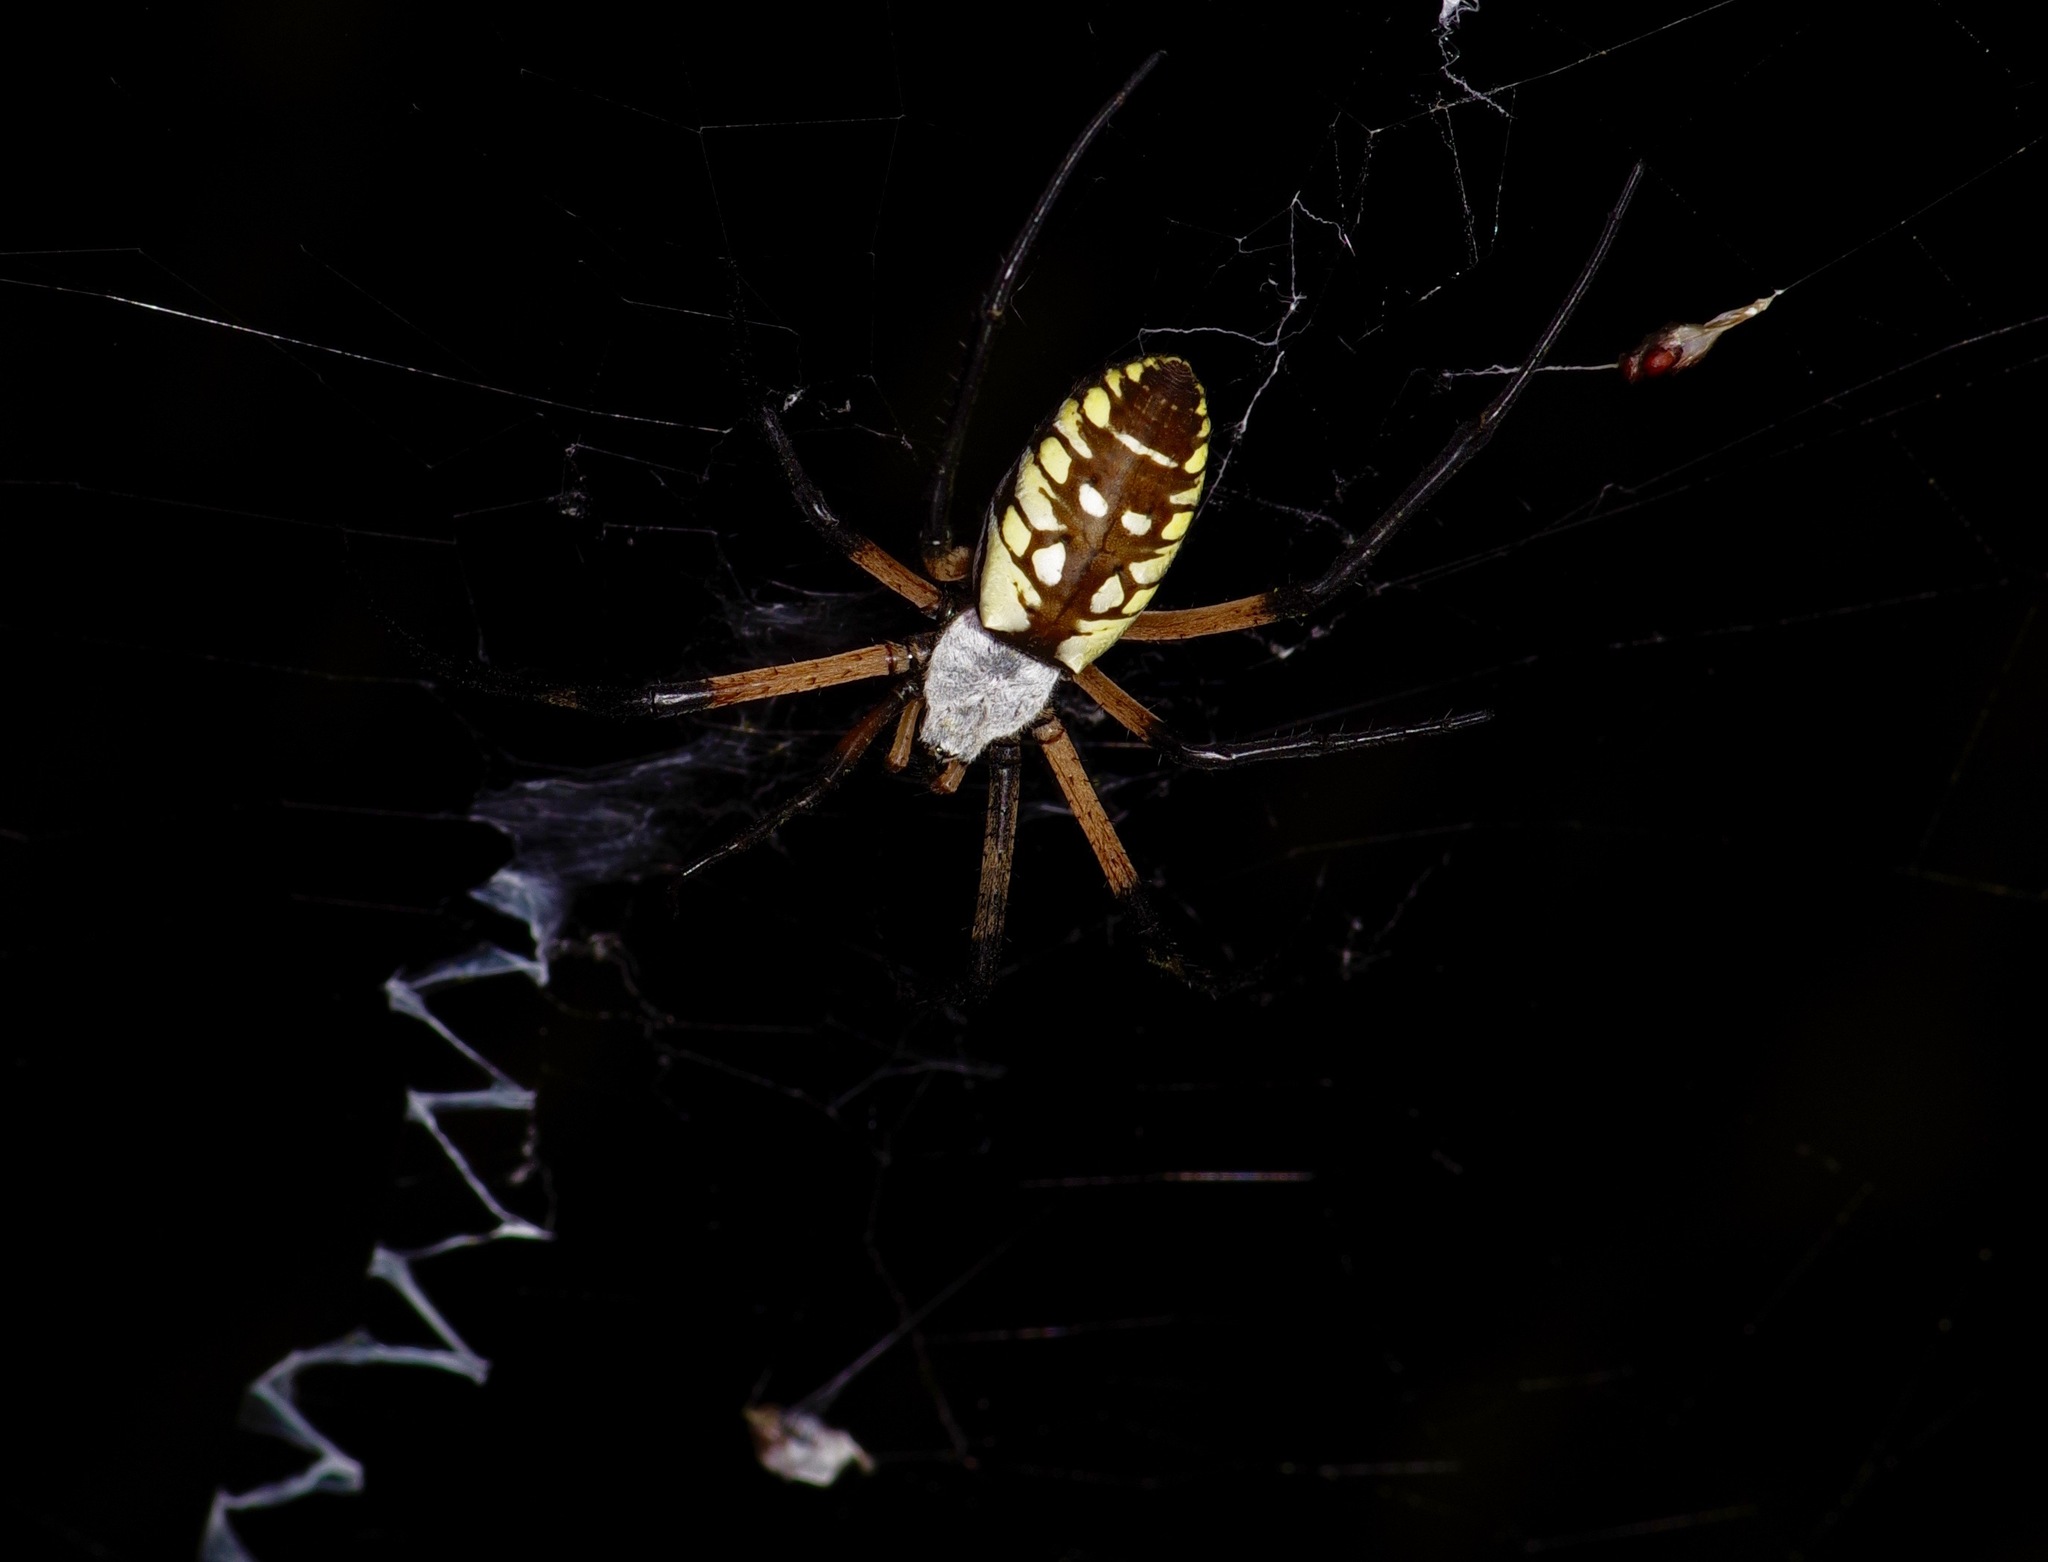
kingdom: Animalia
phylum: Arthropoda
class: Arachnida
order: Araneae
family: Araneidae
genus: Argiope
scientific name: Argiope aurantia
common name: Orb weavers
